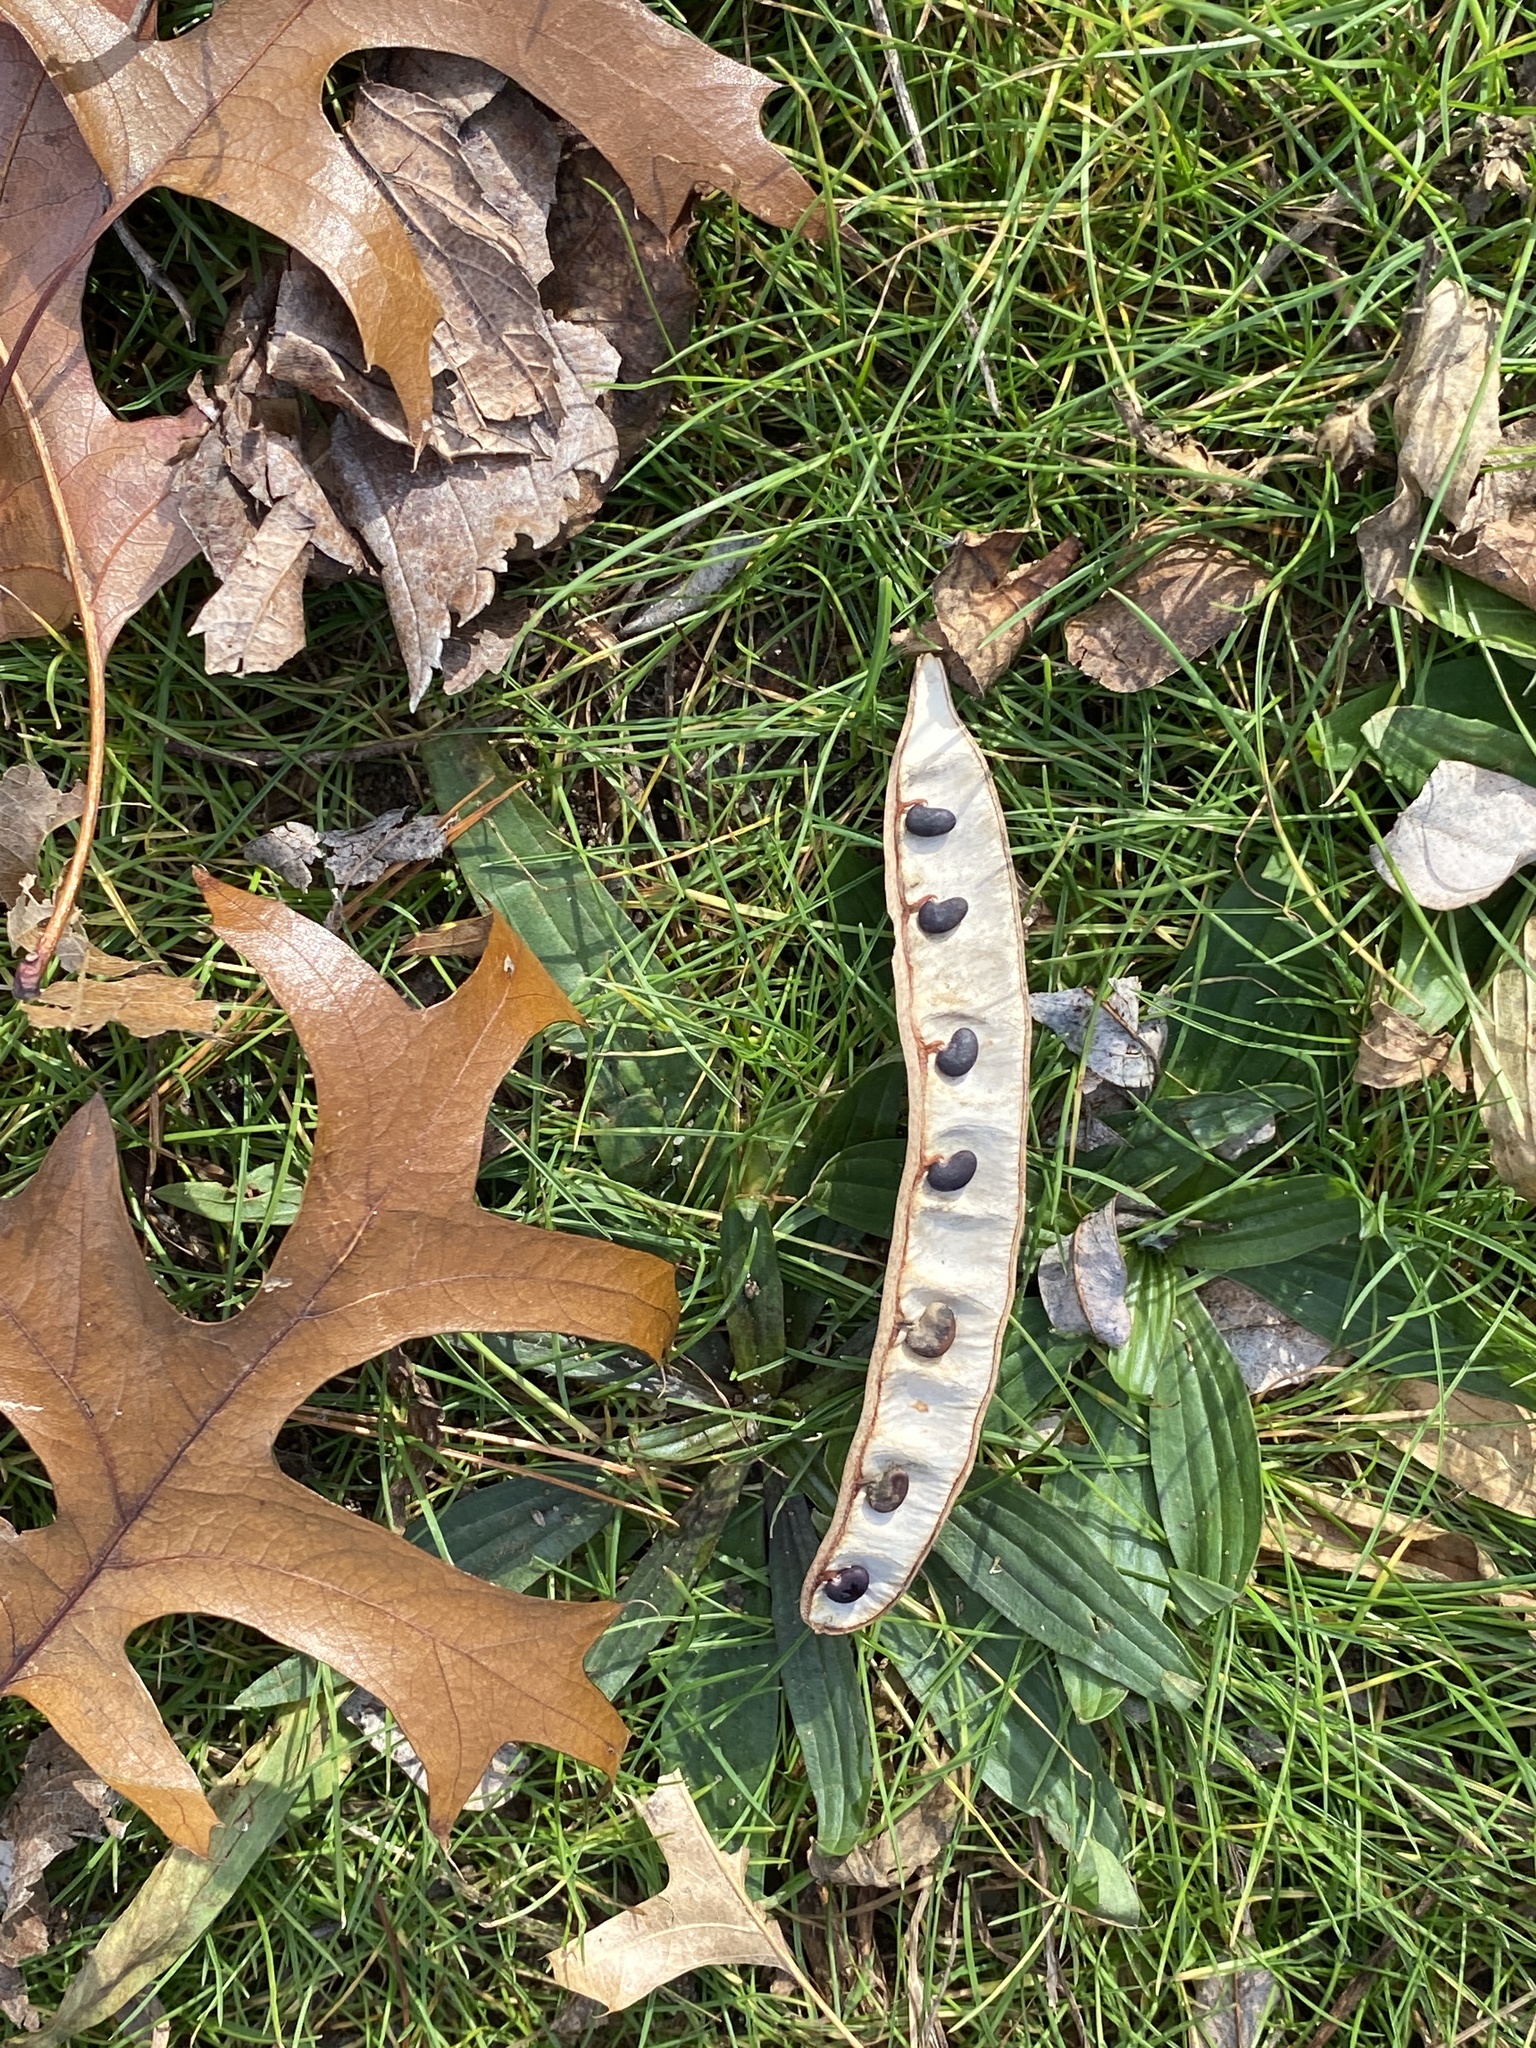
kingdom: Plantae
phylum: Tracheophyta
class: Magnoliopsida
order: Fabales
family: Fabaceae
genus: Robinia
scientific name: Robinia pseudoacacia
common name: Black locust
